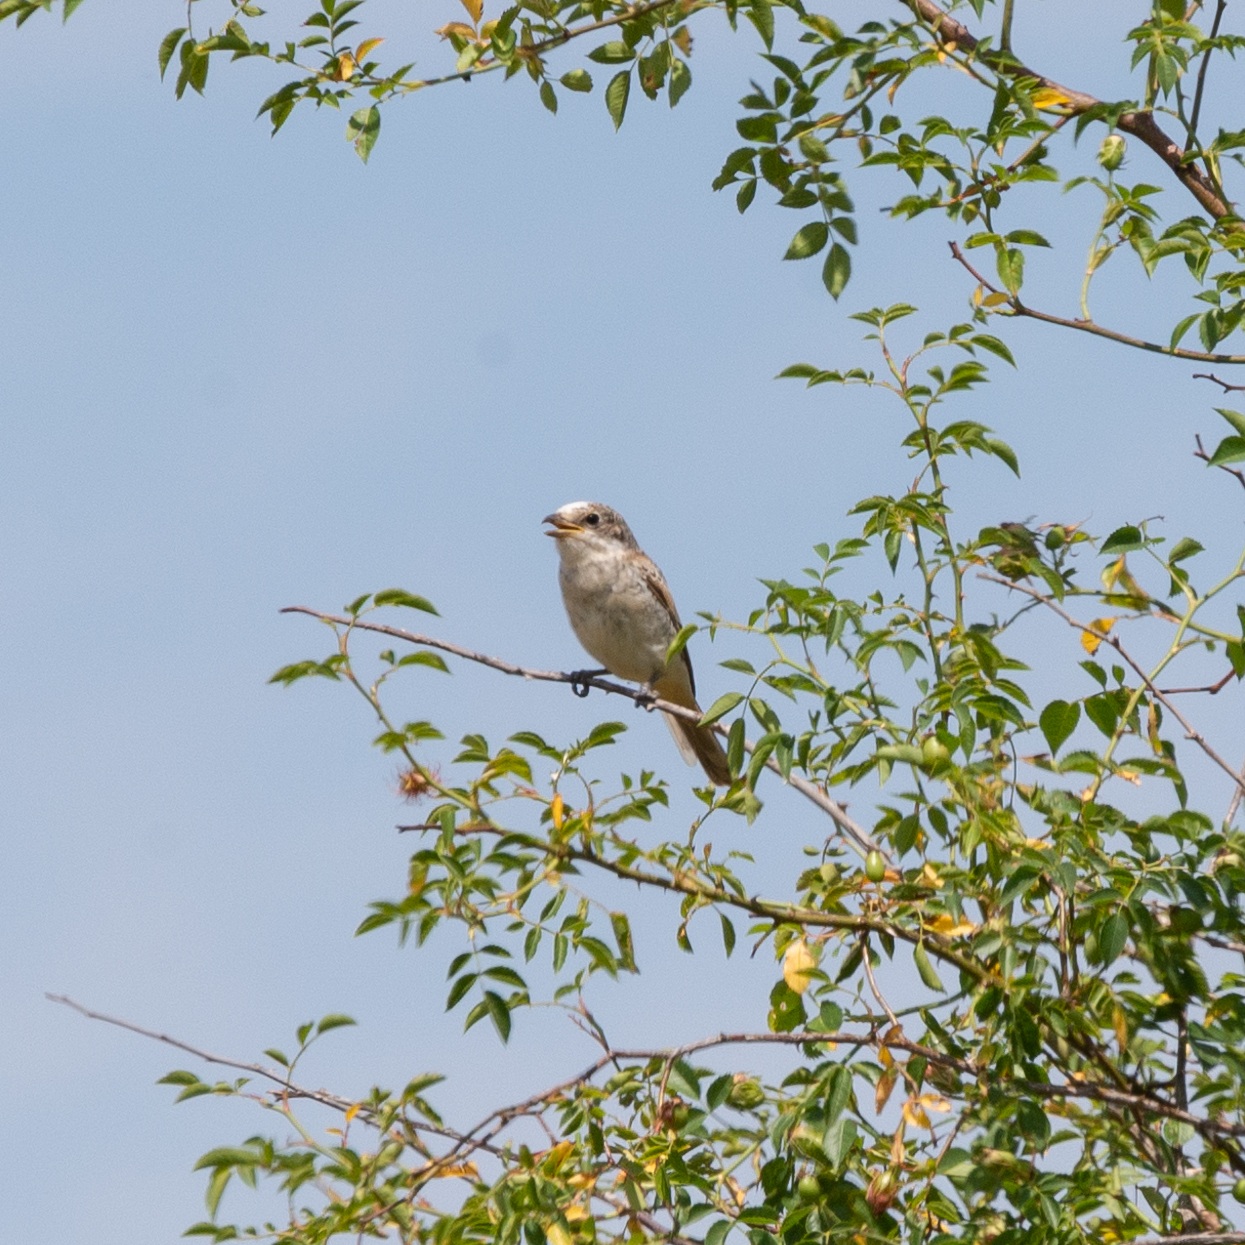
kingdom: Animalia
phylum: Chordata
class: Aves
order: Passeriformes
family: Laniidae
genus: Lanius
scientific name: Lanius senator
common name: Woodchat shrike
